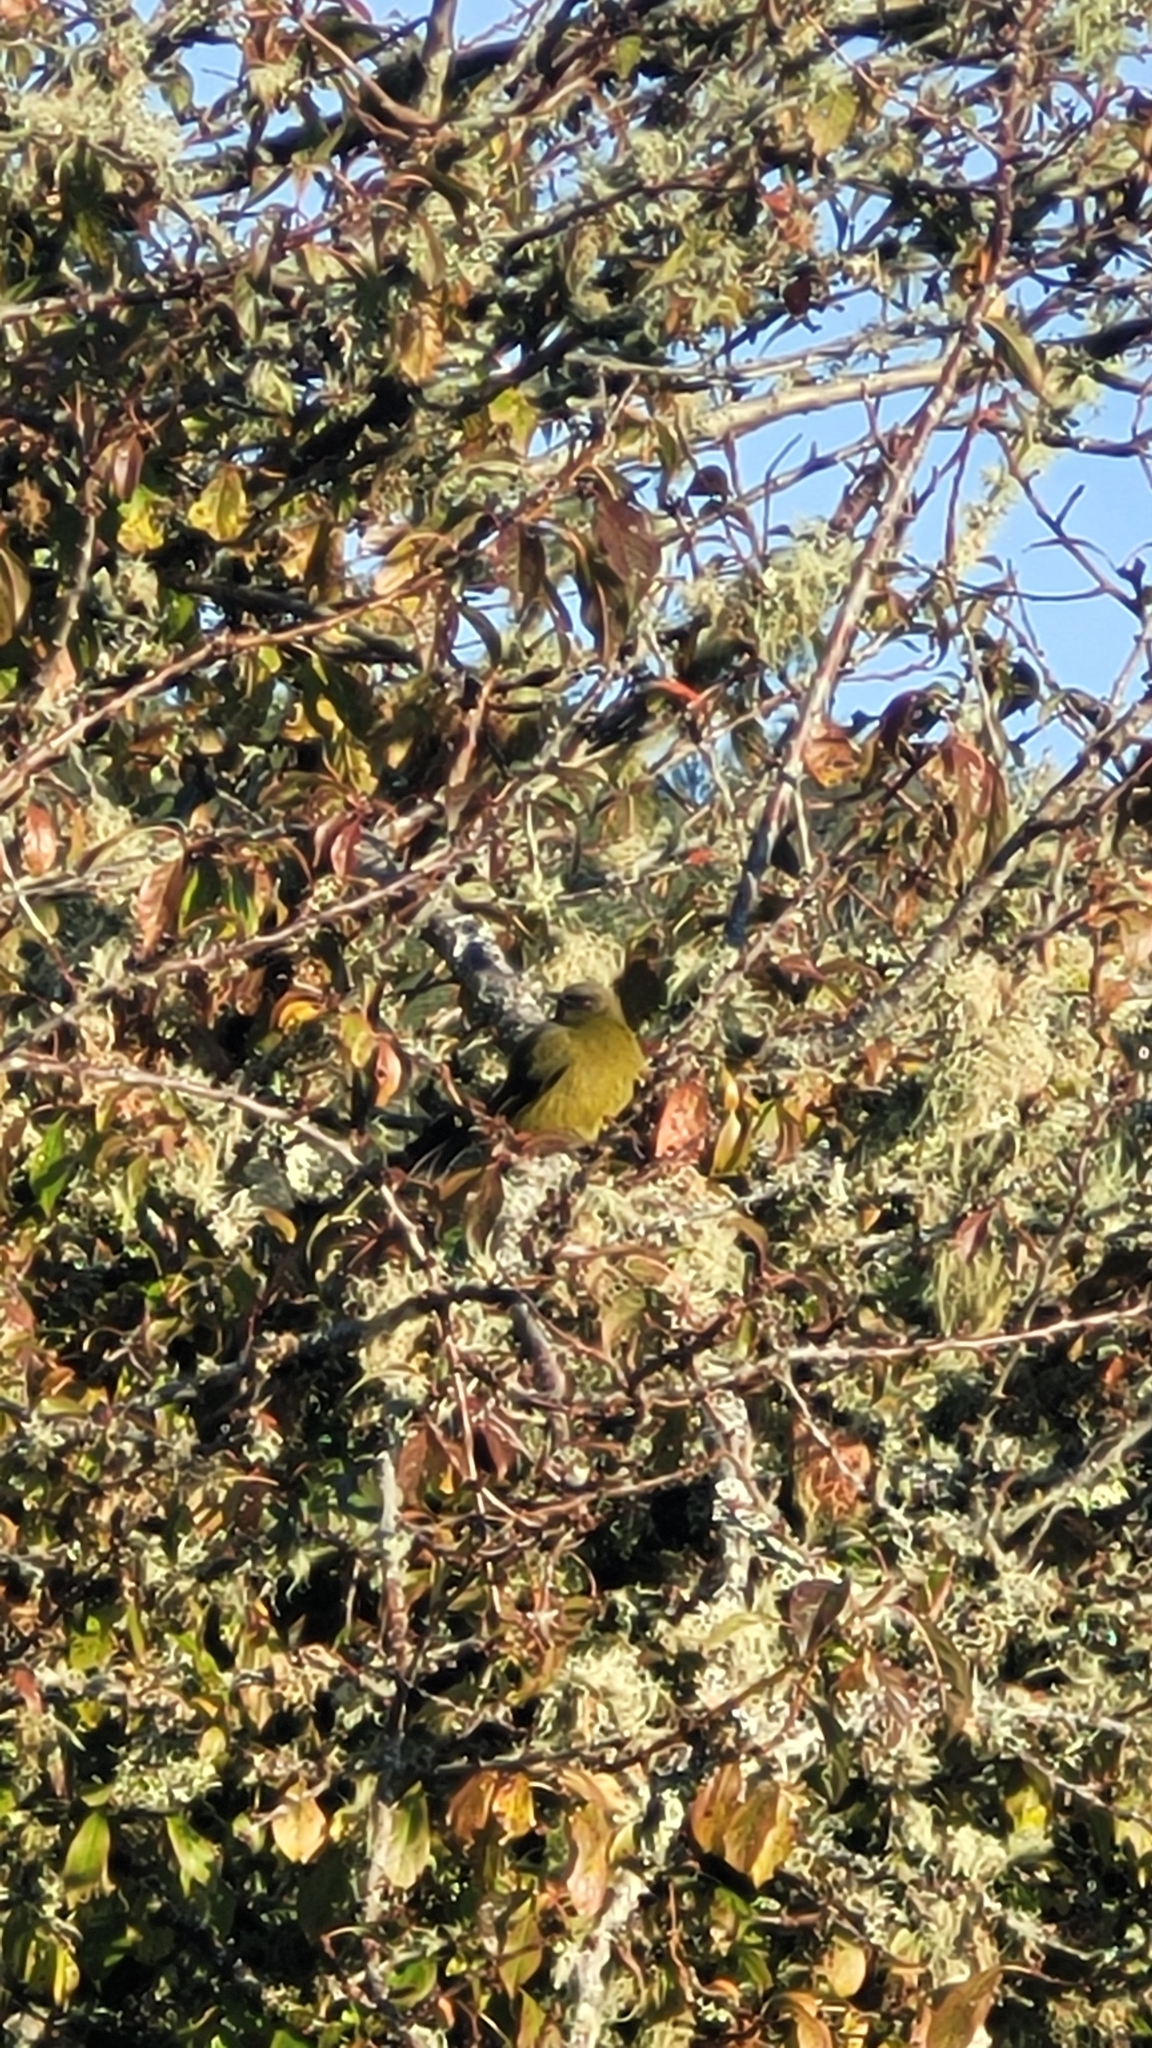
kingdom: Animalia
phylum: Chordata
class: Aves
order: Passeriformes
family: Meliphagidae
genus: Anthornis
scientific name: Anthornis melanura
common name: New zealand bellbird
